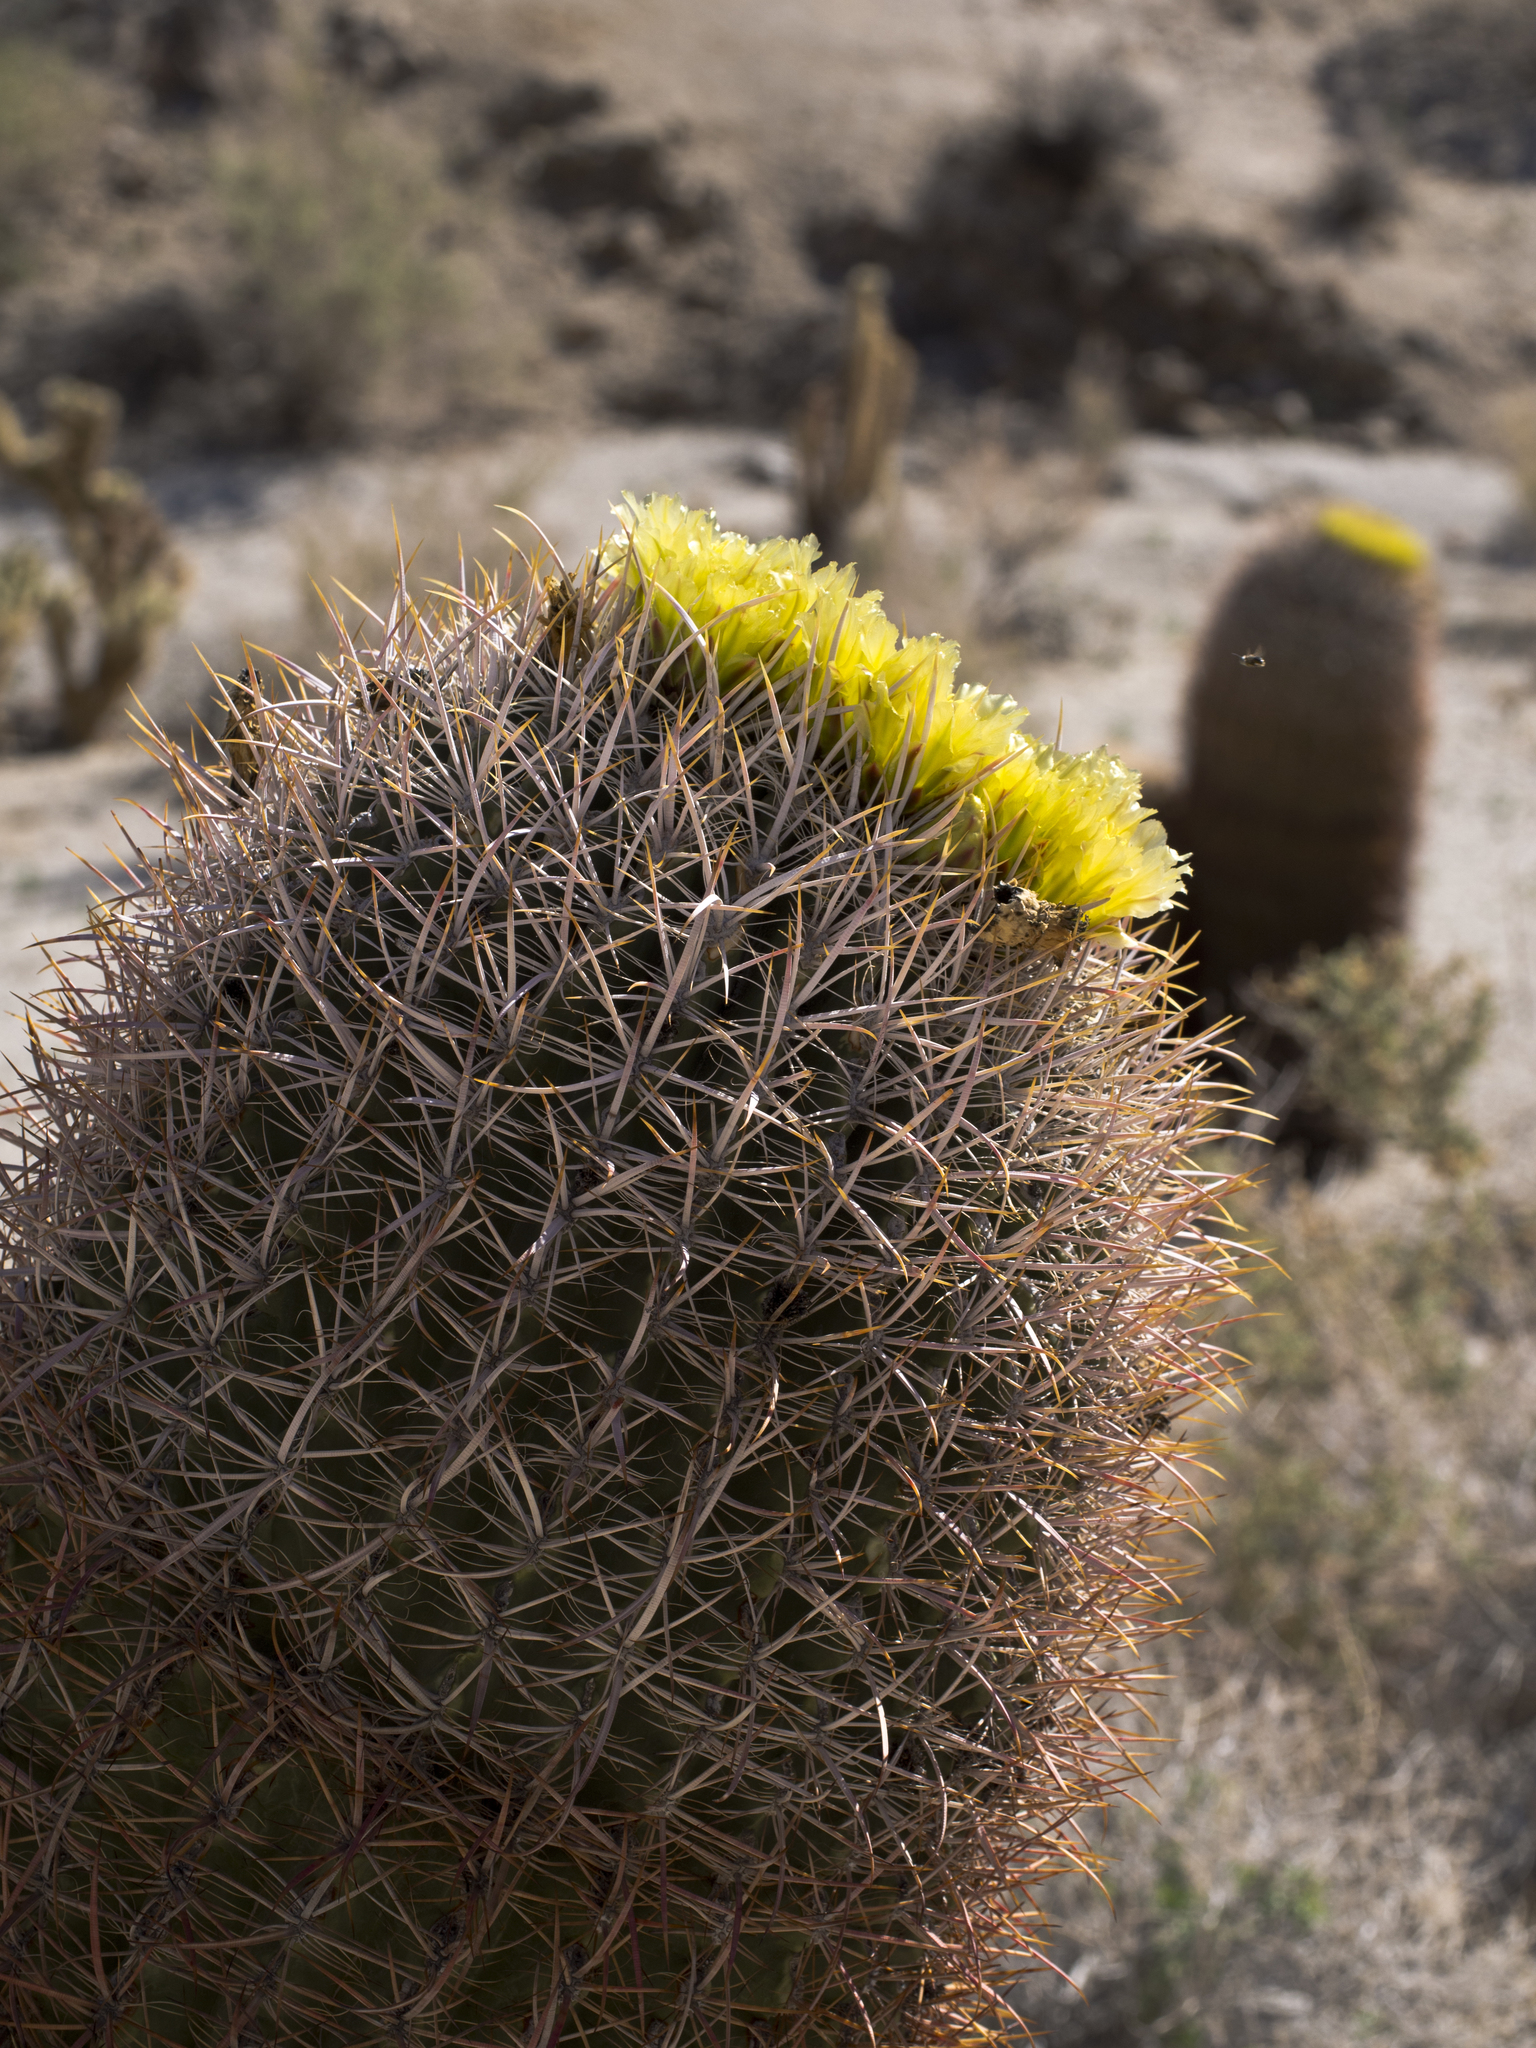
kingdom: Plantae
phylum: Tracheophyta
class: Magnoliopsida
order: Caryophyllales
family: Cactaceae
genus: Ferocactus
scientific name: Ferocactus cylindraceus
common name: California barrel cactus
